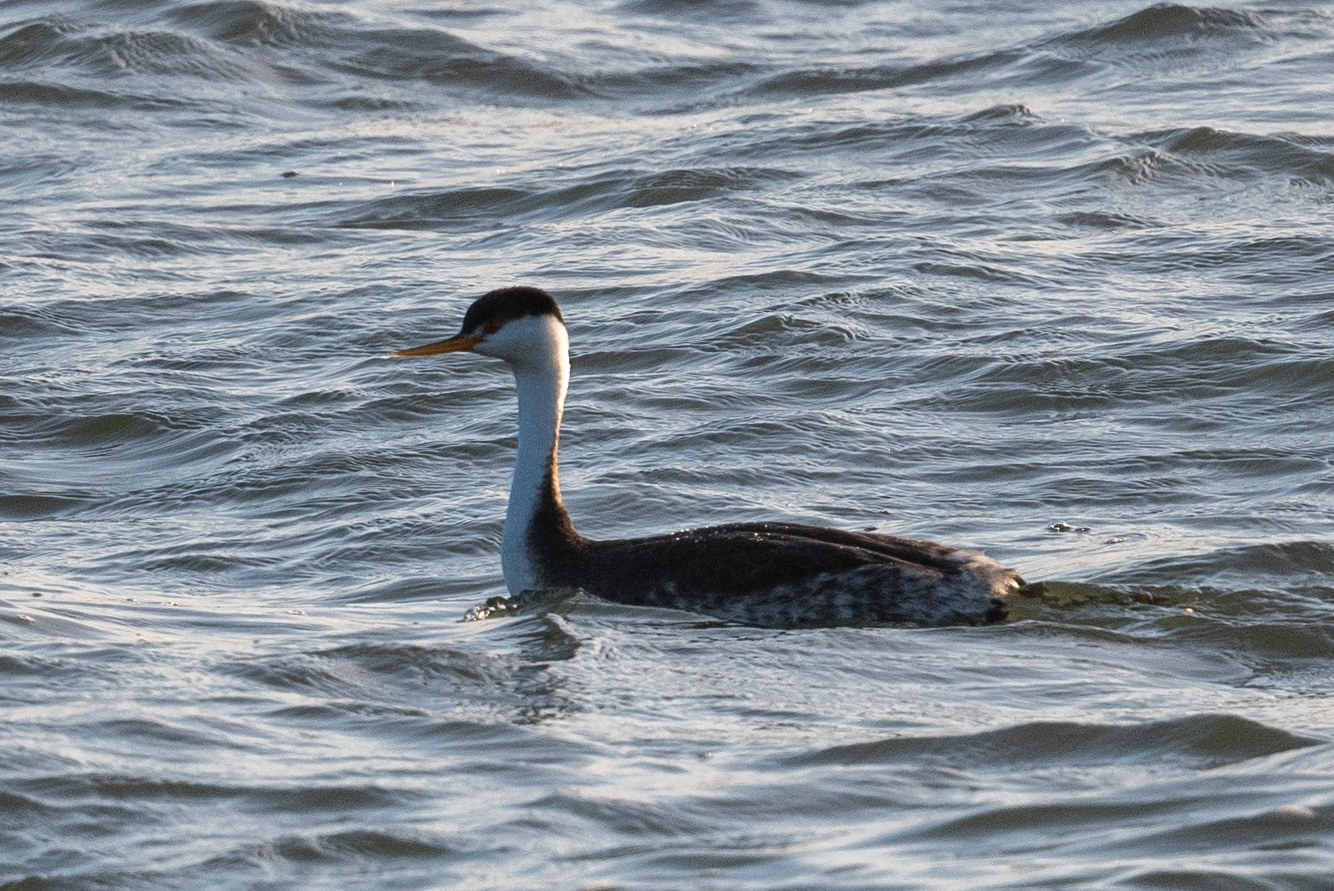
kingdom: Animalia
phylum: Chordata
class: Aves
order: Podicipediformes
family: Podicipedidae
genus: Aechmophorus
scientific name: Aechmophorus clarkii
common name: Clark's grebe
